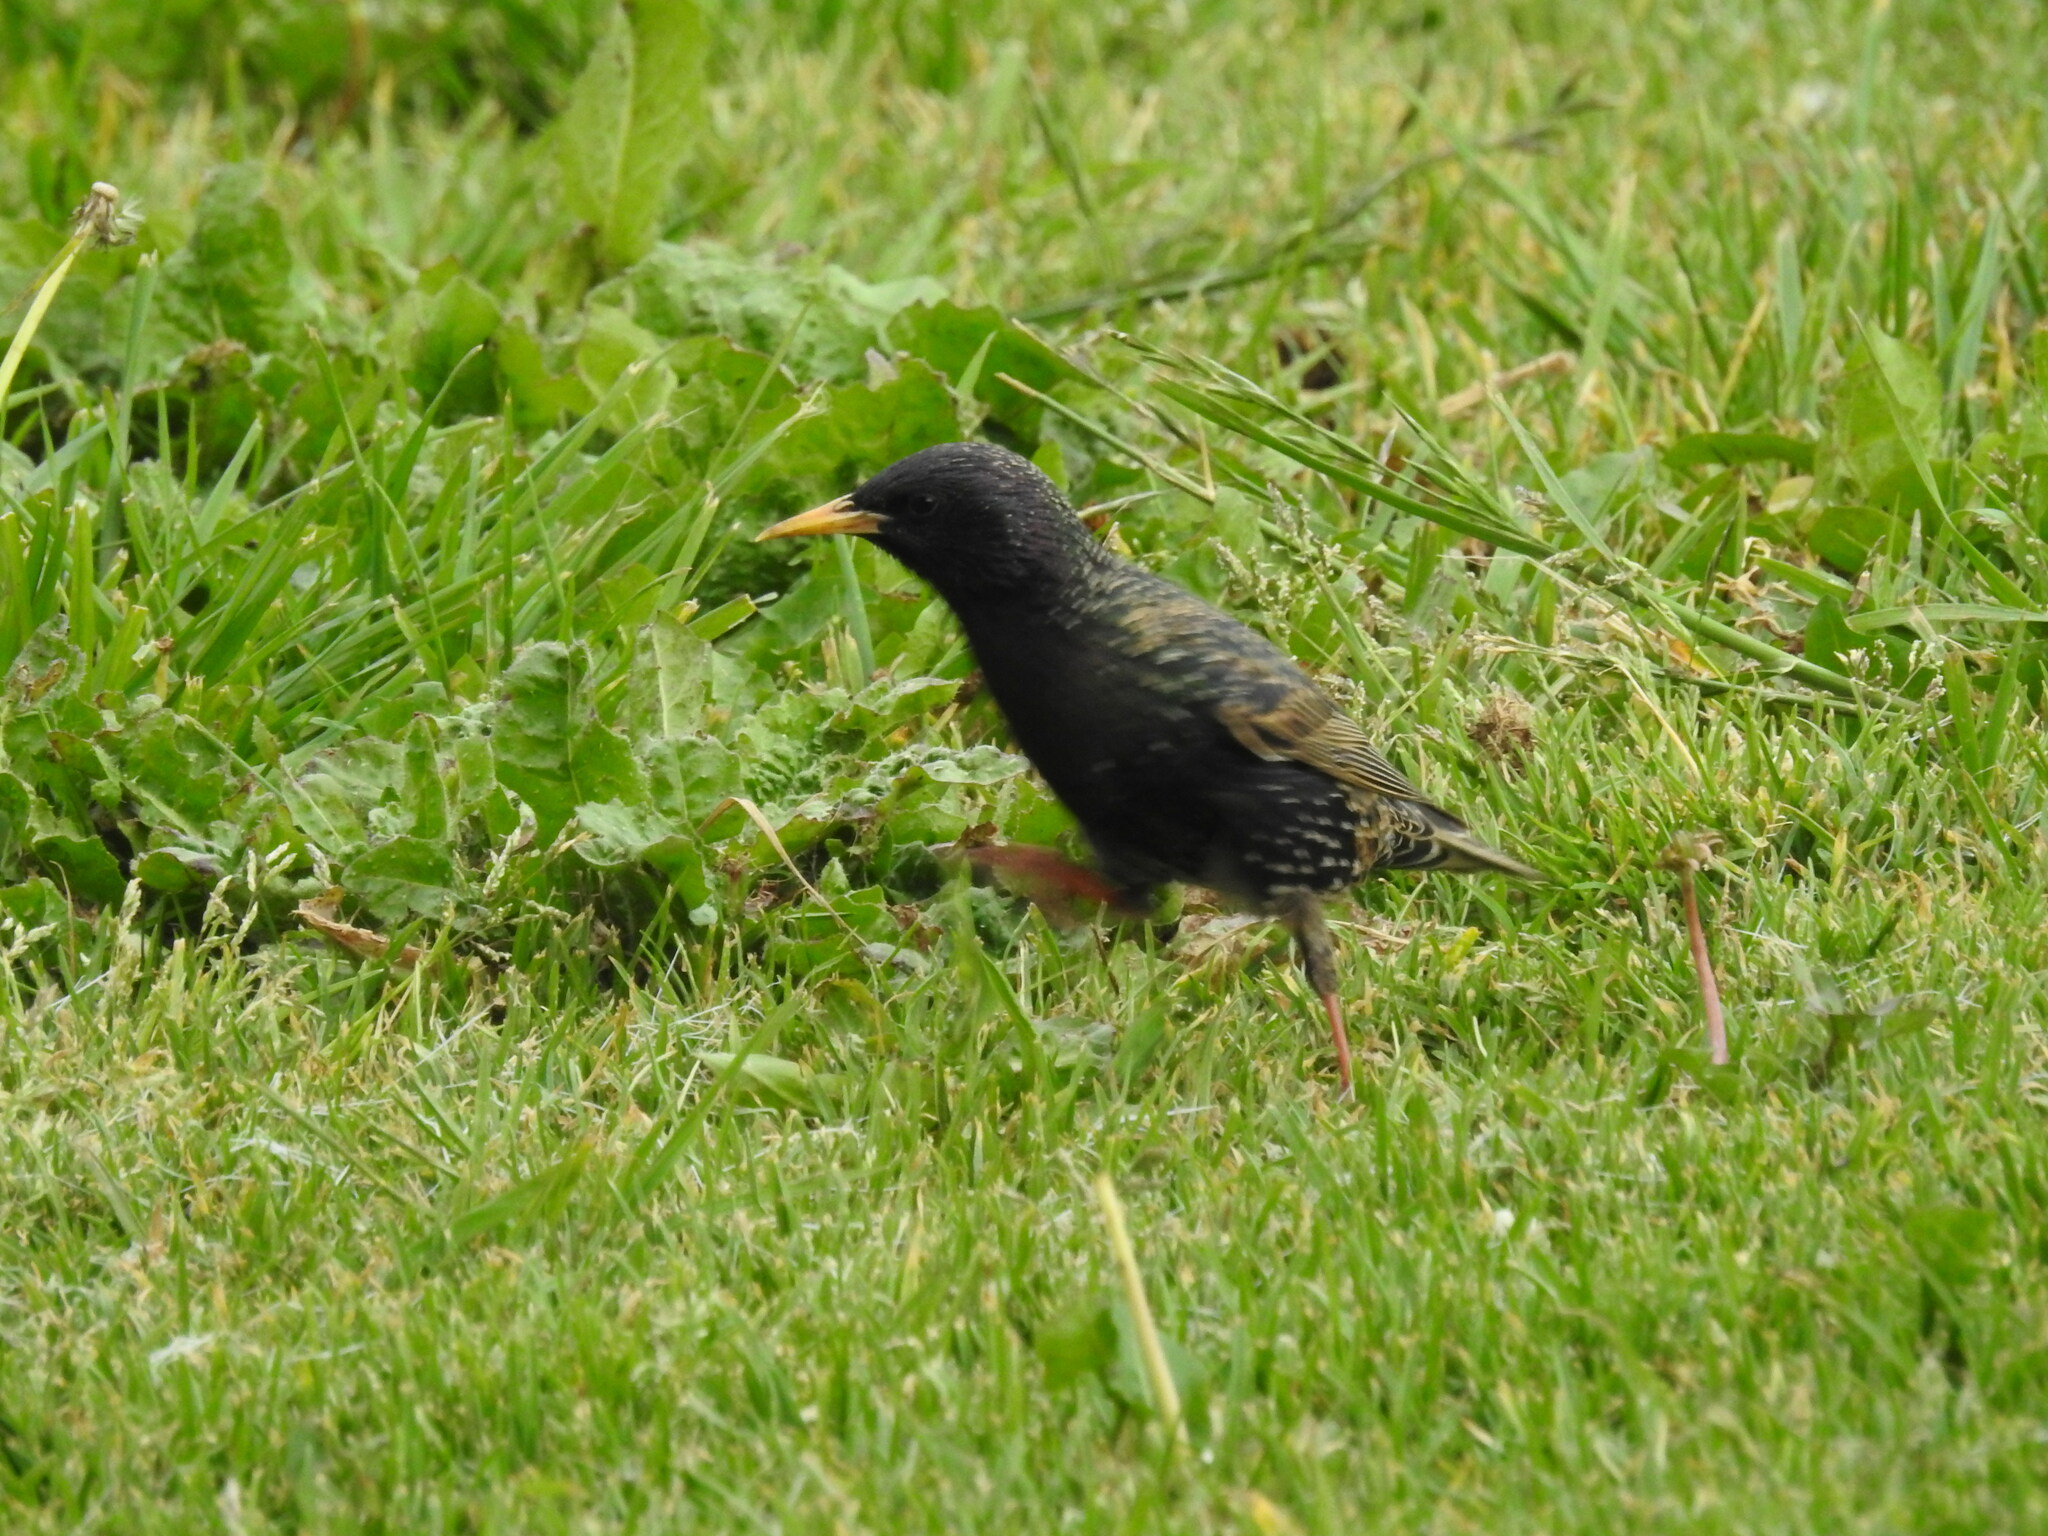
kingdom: Animalia
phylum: Chordata
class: Aves
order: Passeriformes
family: Sturnidae
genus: Sturnus
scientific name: Sturnus vulgaris
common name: Common starling
